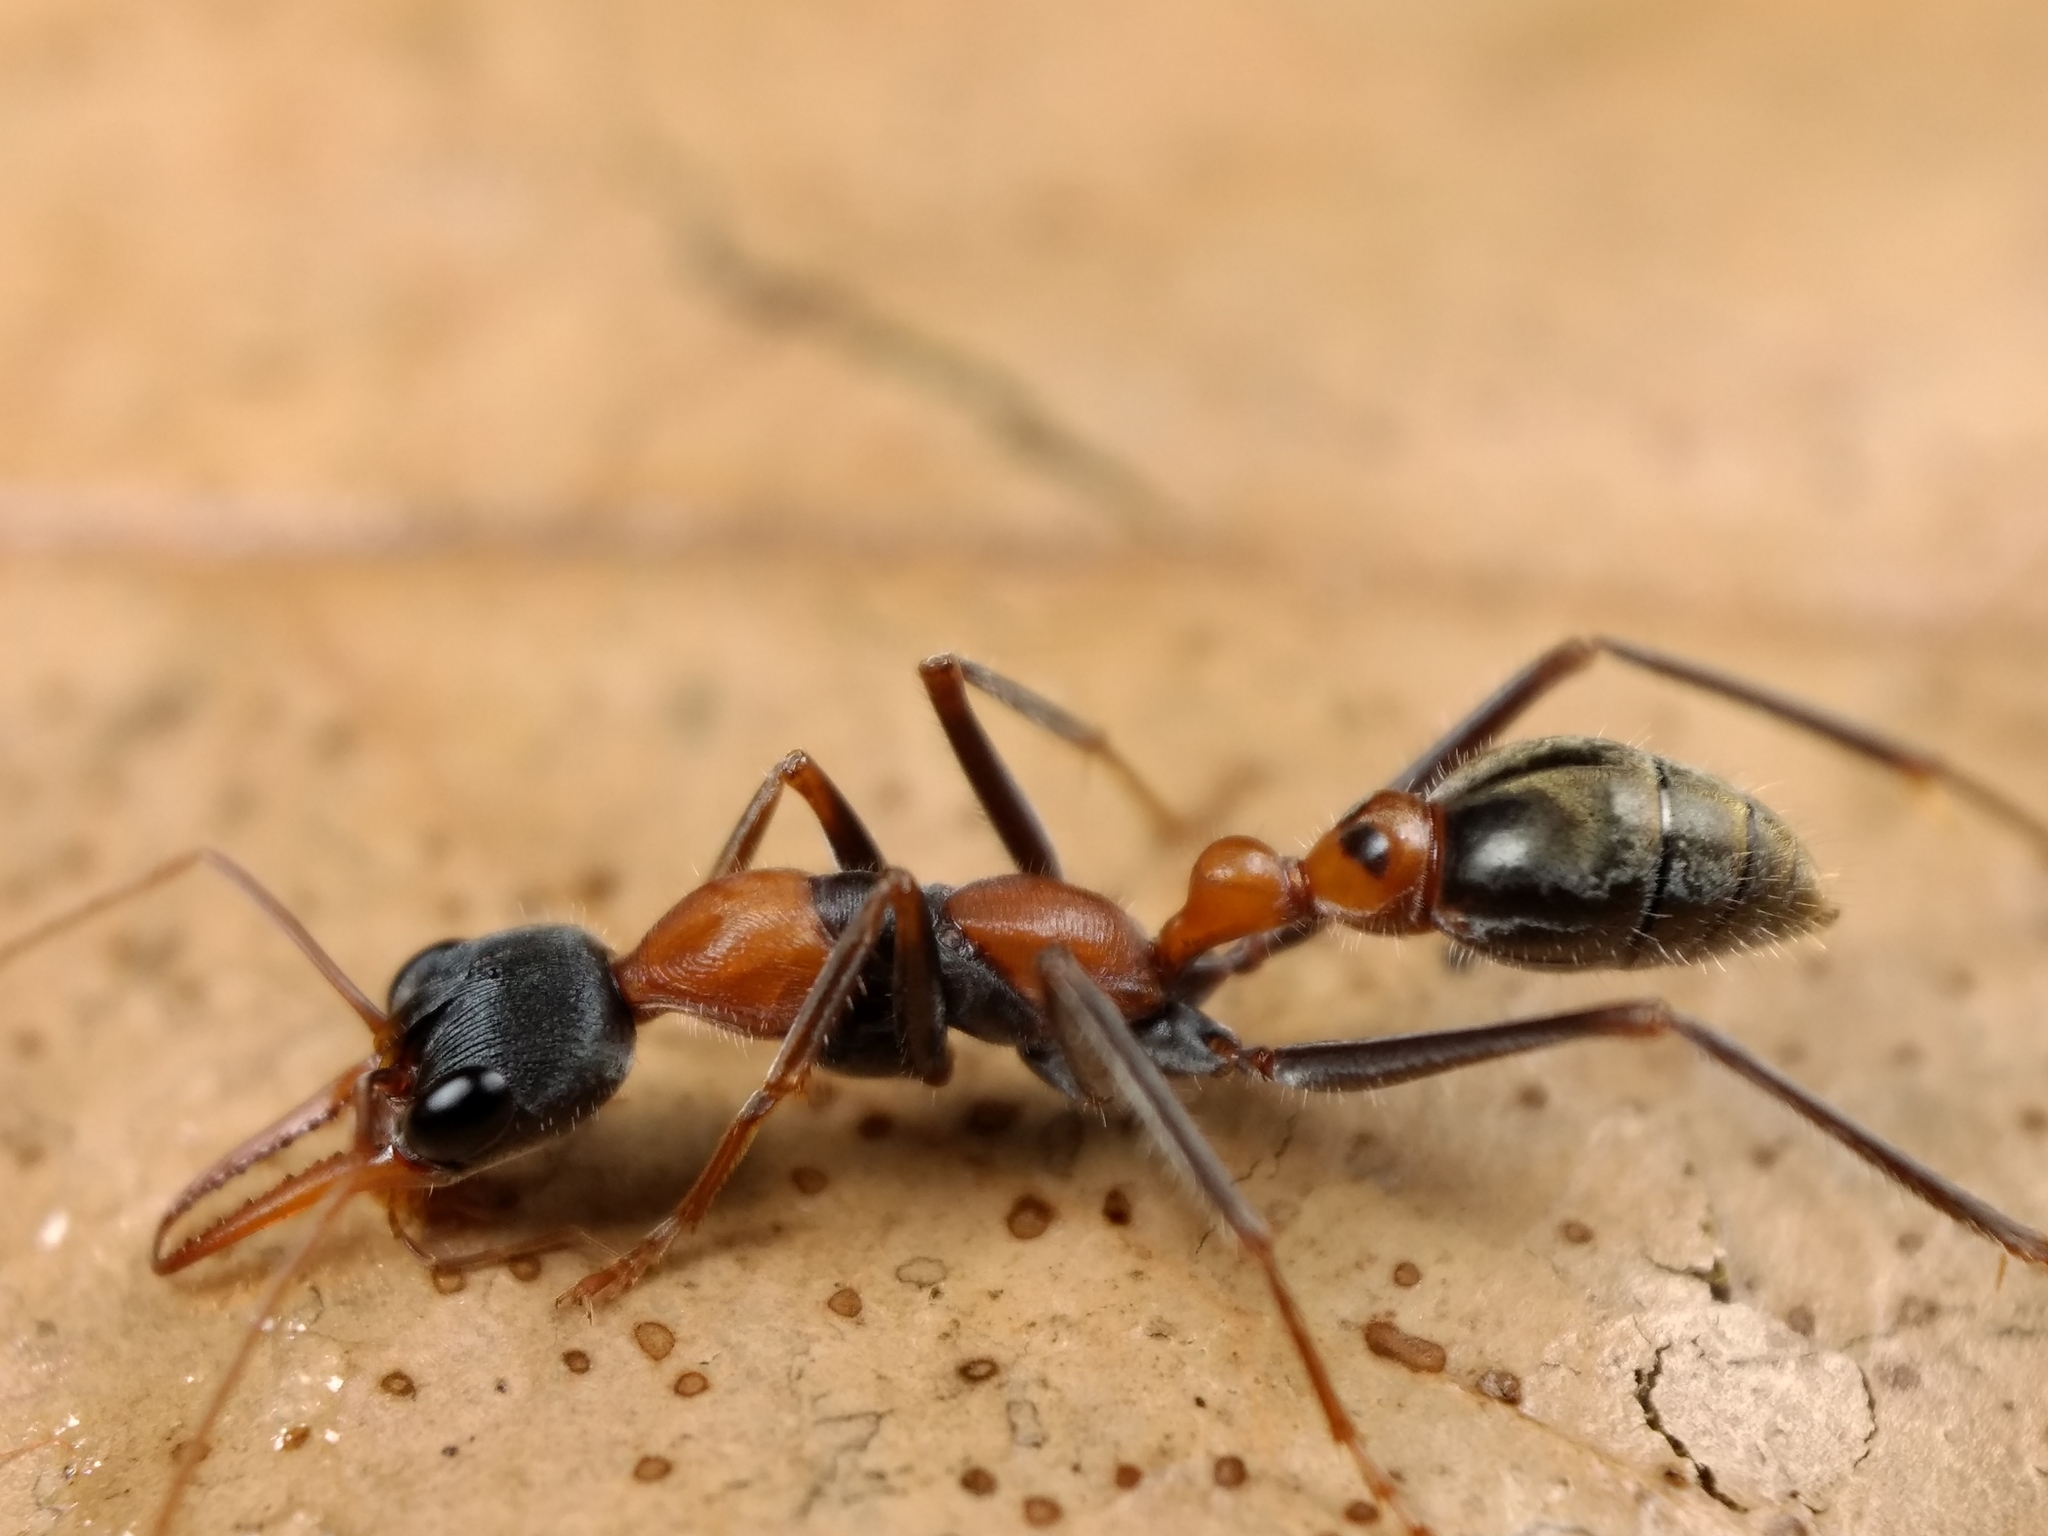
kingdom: Animalia
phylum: Arthropoda
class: Insecta
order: Hymenoptera
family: Formicidae
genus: Myrmecia
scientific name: Myrmecia nigrocincta
